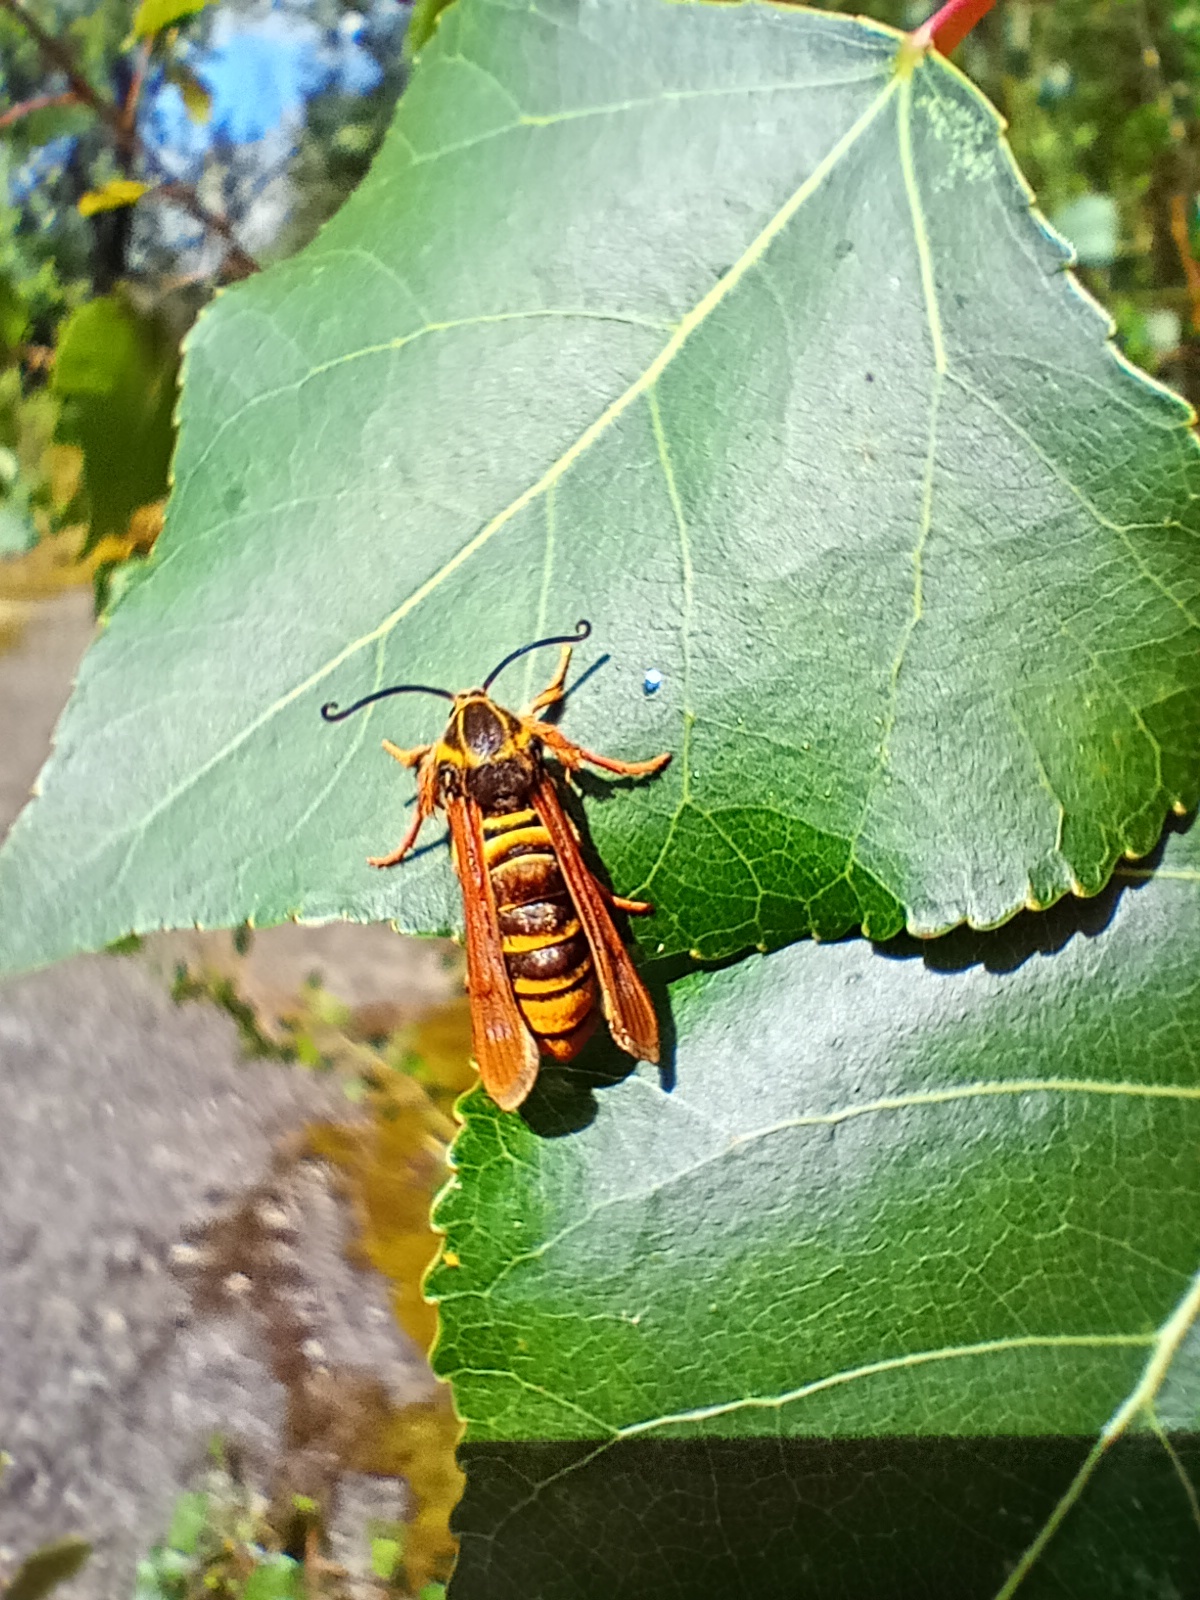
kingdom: Animalia
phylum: Arthropoda
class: Insecta
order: Lepidoptera
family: Sesiidae
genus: Pennisetia
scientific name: Pennisetia bohemica
